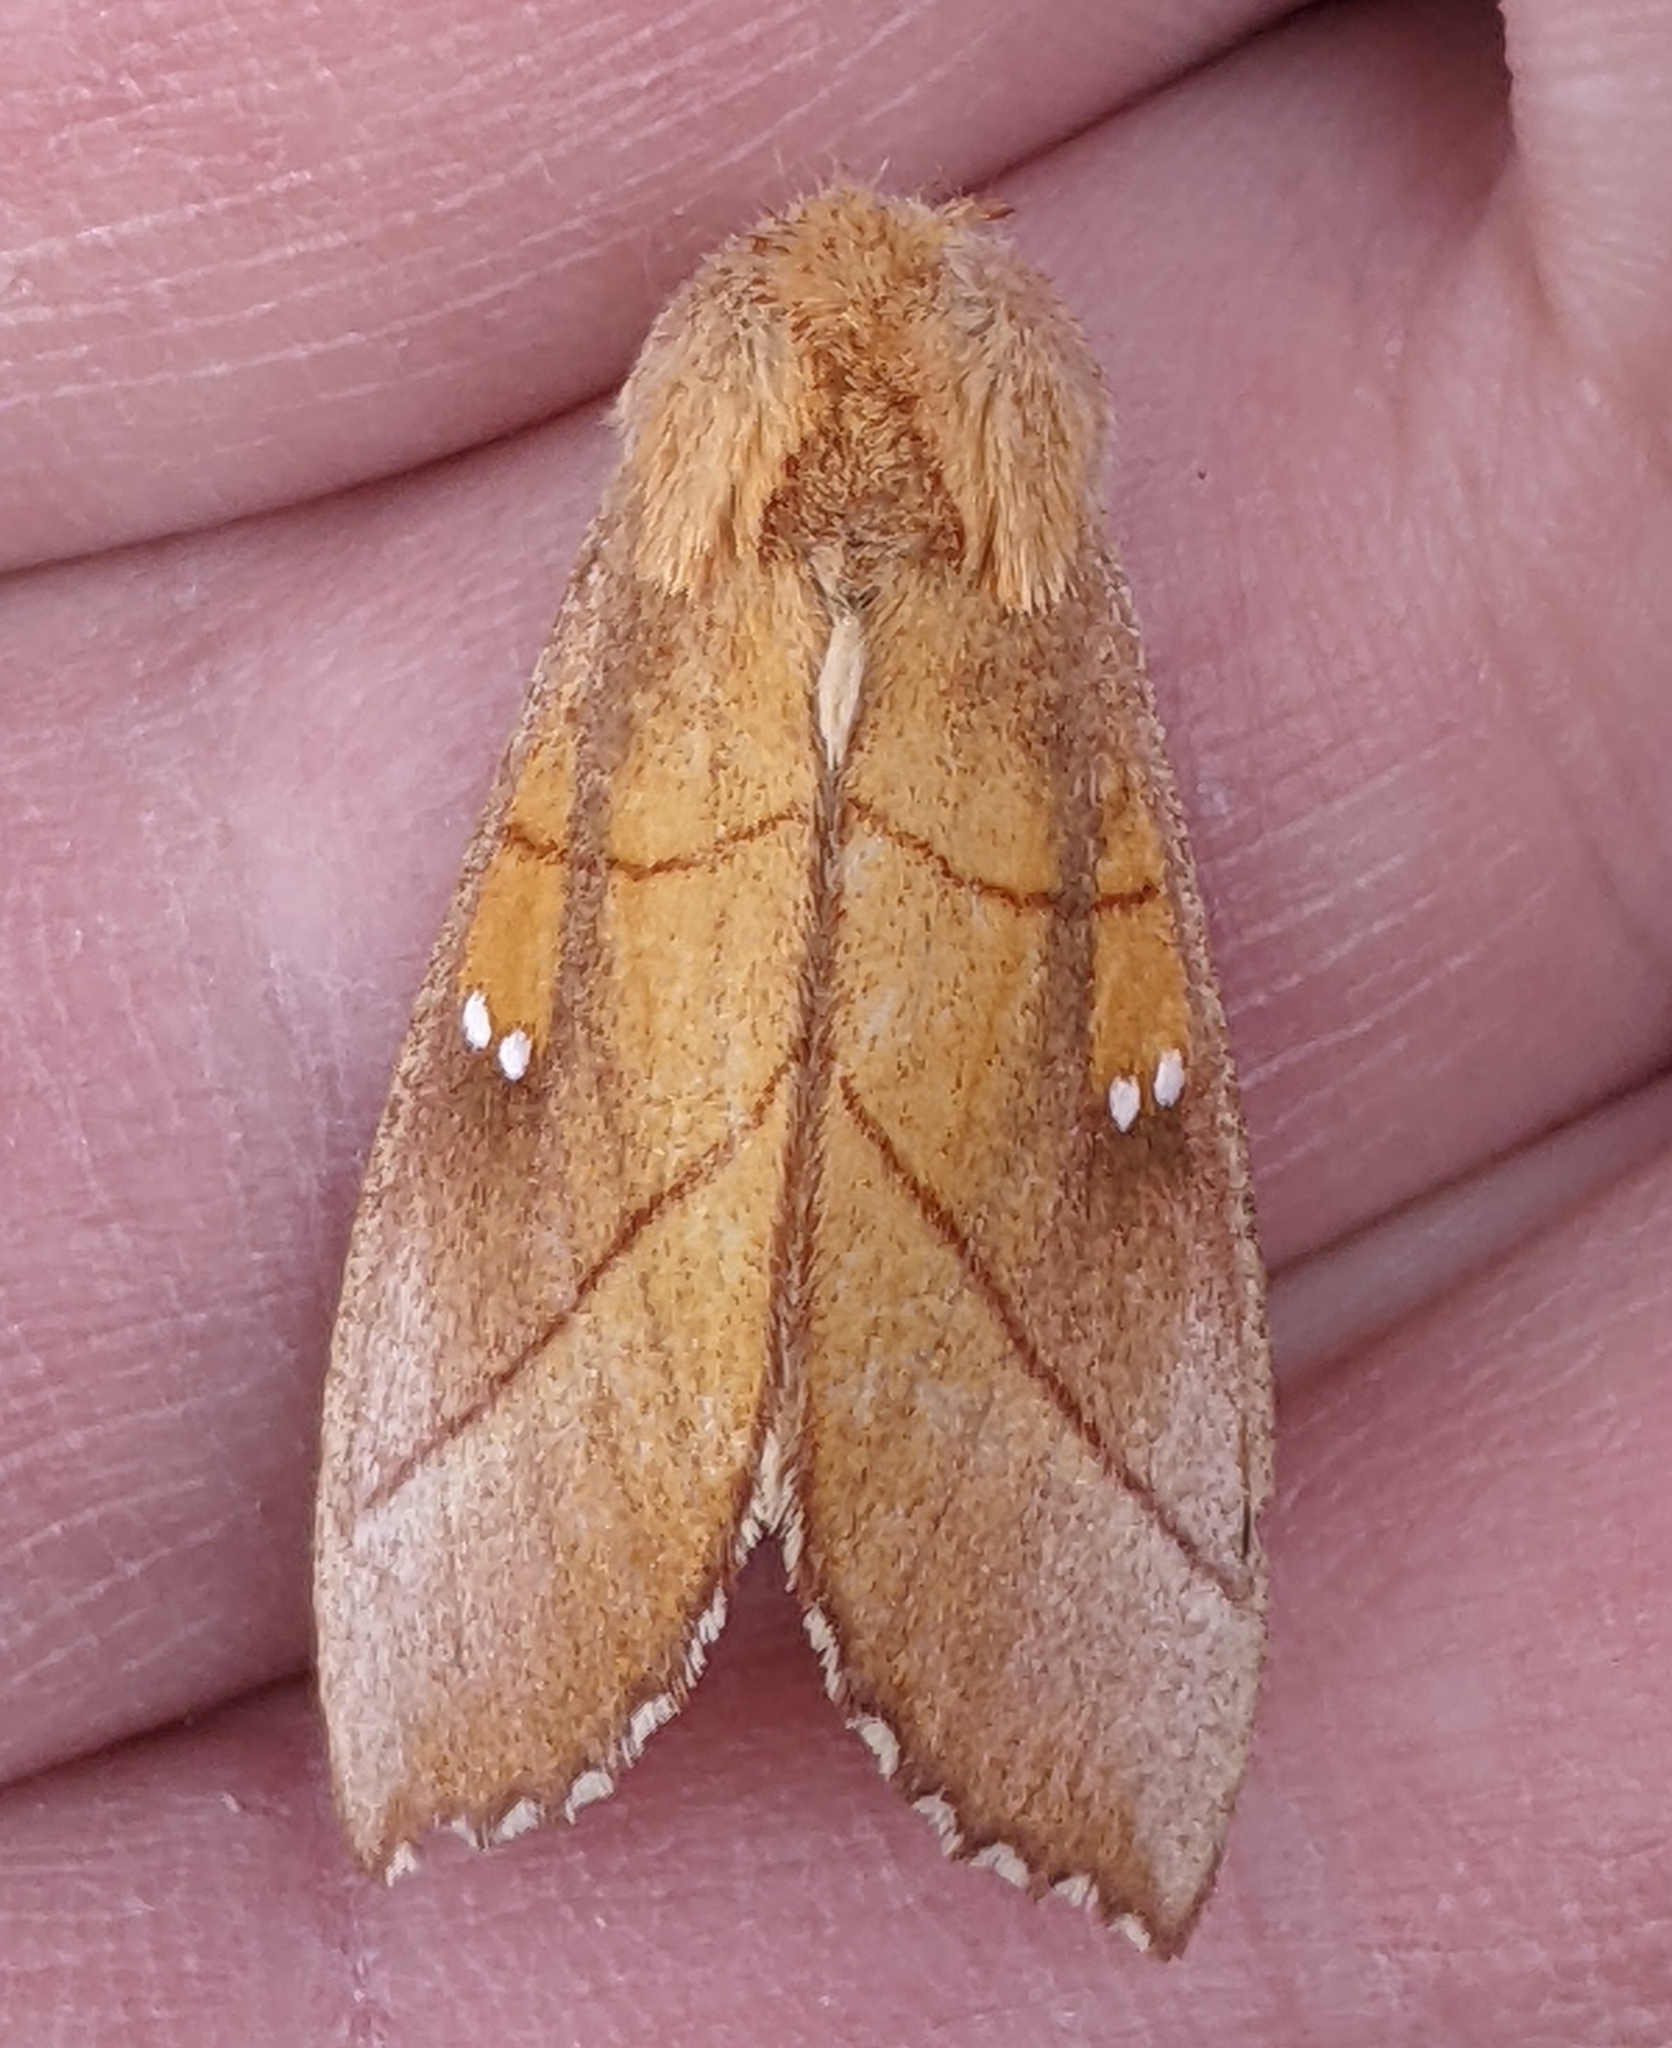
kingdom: Animalia
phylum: Arthropoda
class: Insecta
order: Lepidoptera
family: Notodontidae
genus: Nadata
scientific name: Nadata gibbosa
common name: White-dotted prominent
